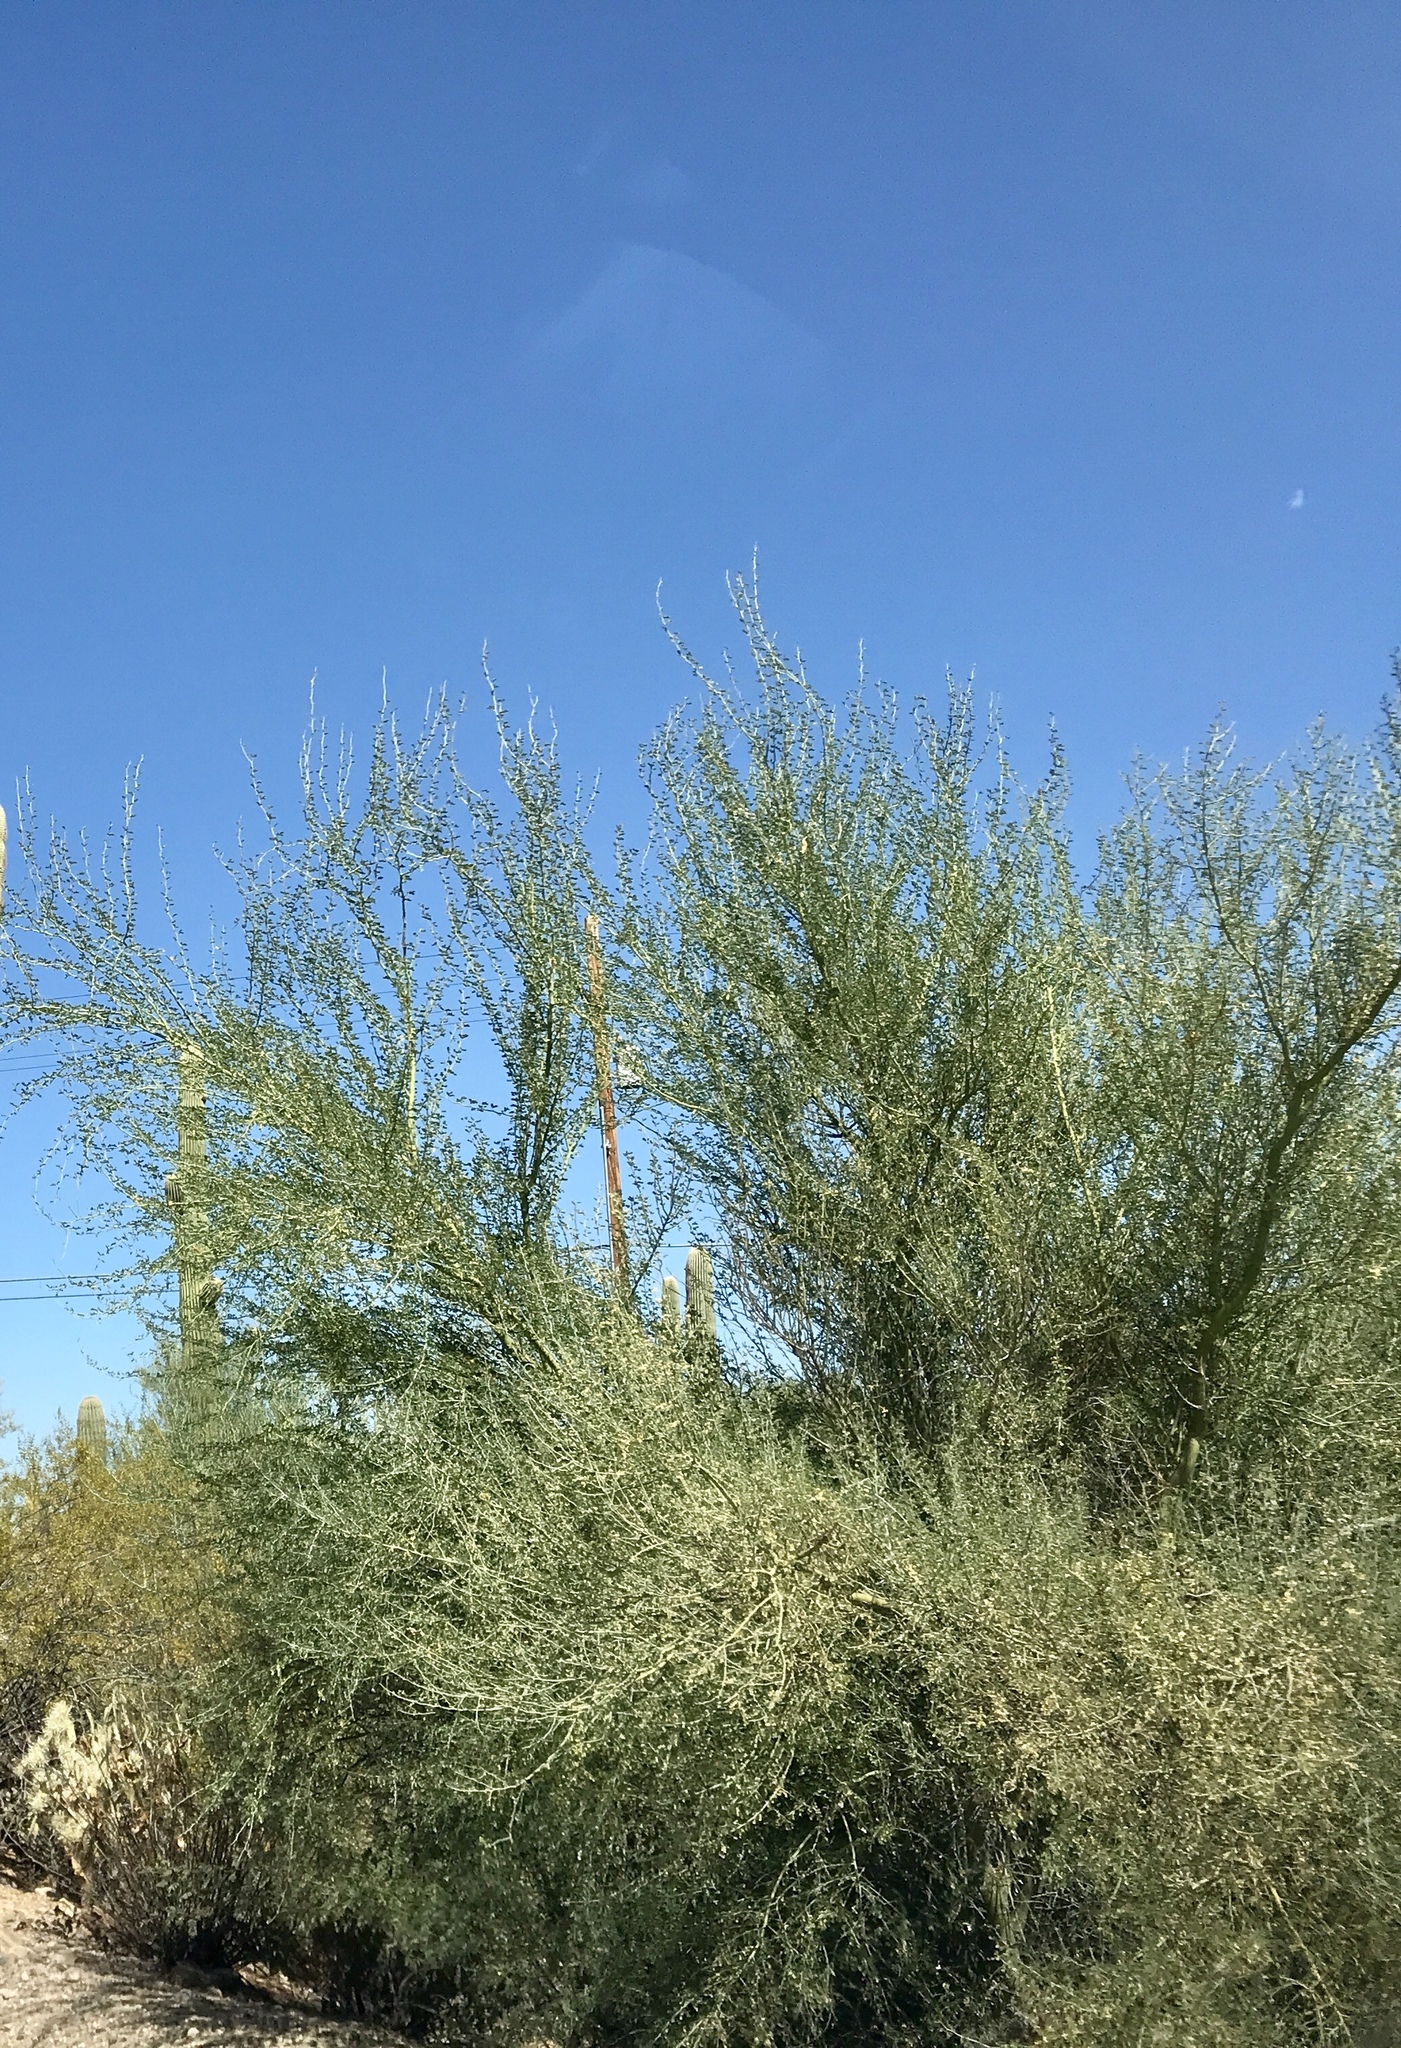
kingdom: Plantae
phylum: Tracheophyta
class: Magnoliopsida
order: Fabales
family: Fabaceae
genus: Parkinsonia
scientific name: Parkinsonia florida
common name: Blue paloverde
